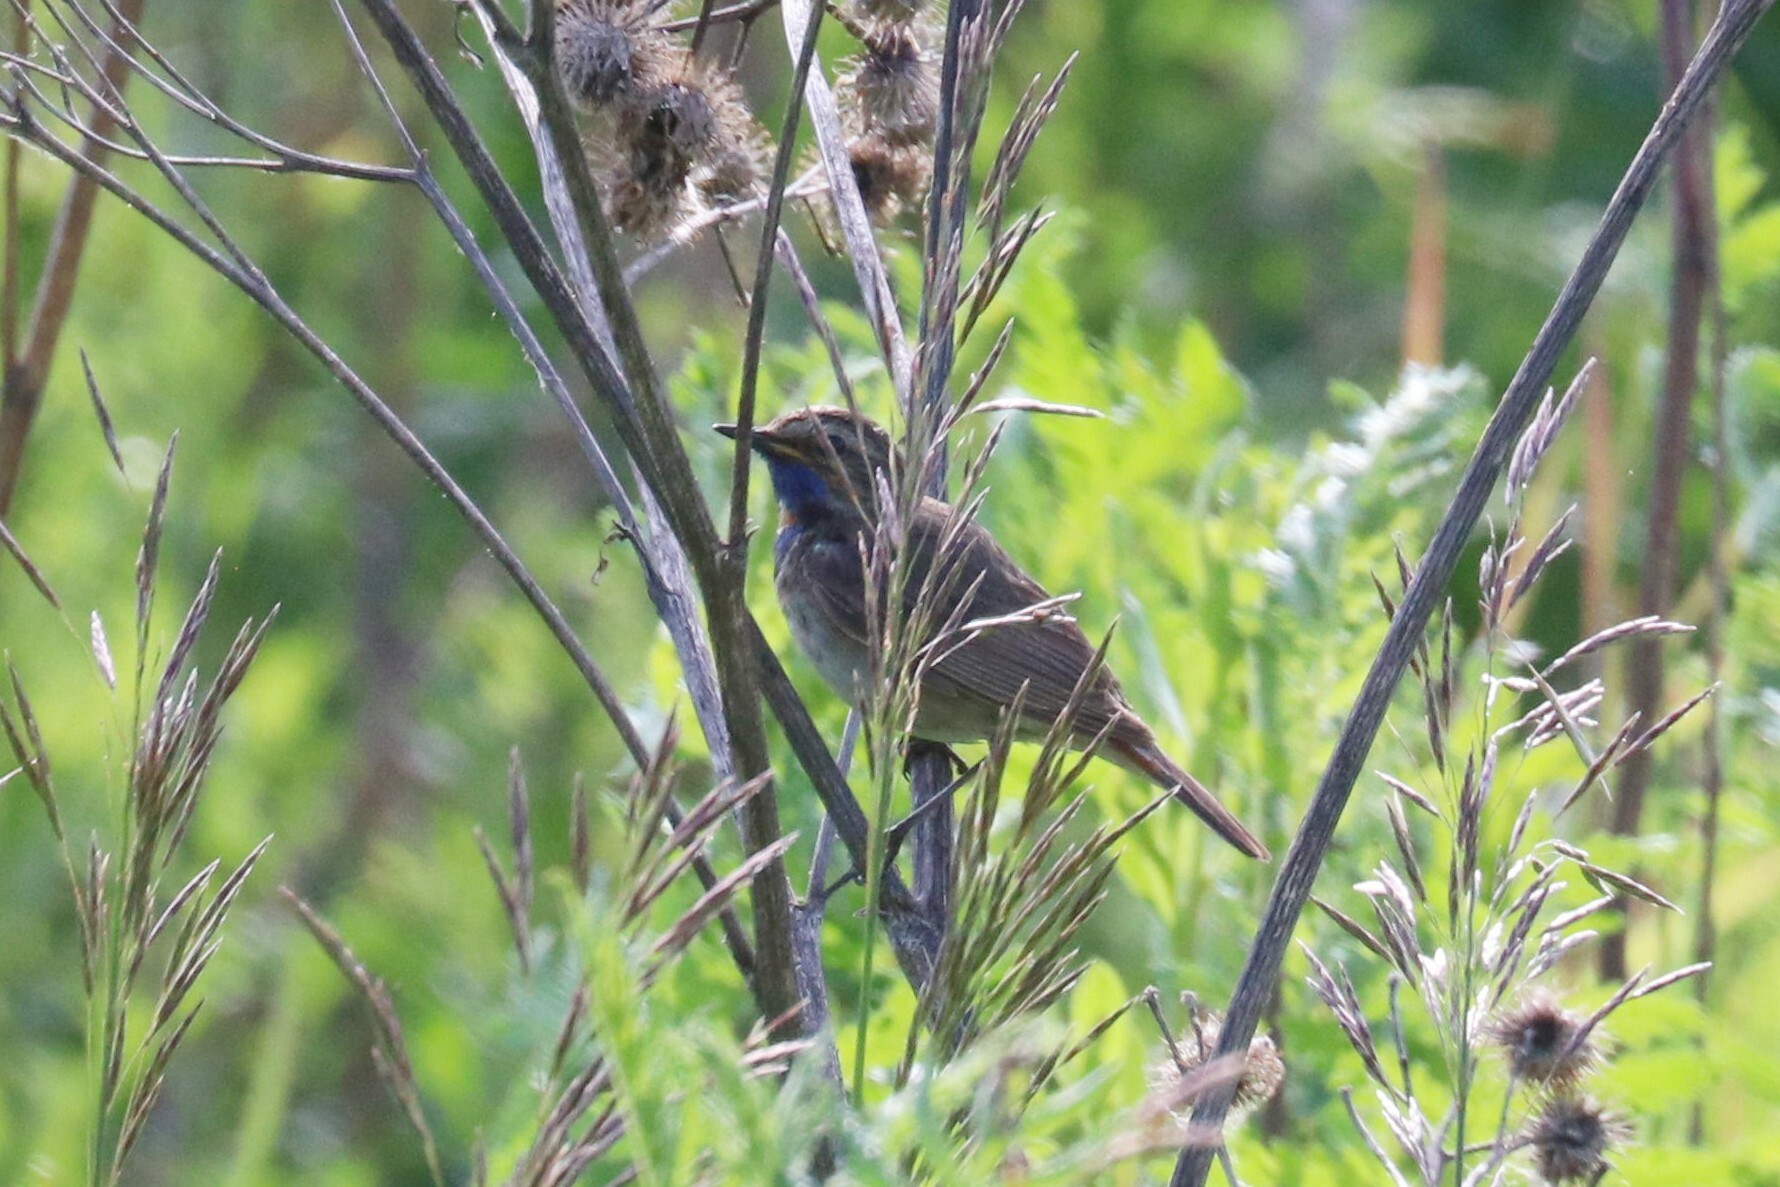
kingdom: Animalia
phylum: Chordata
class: Aves
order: Passeriformes
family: Muscicapidae
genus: Luscinia
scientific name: Luscinia svecica
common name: Bluethroat
